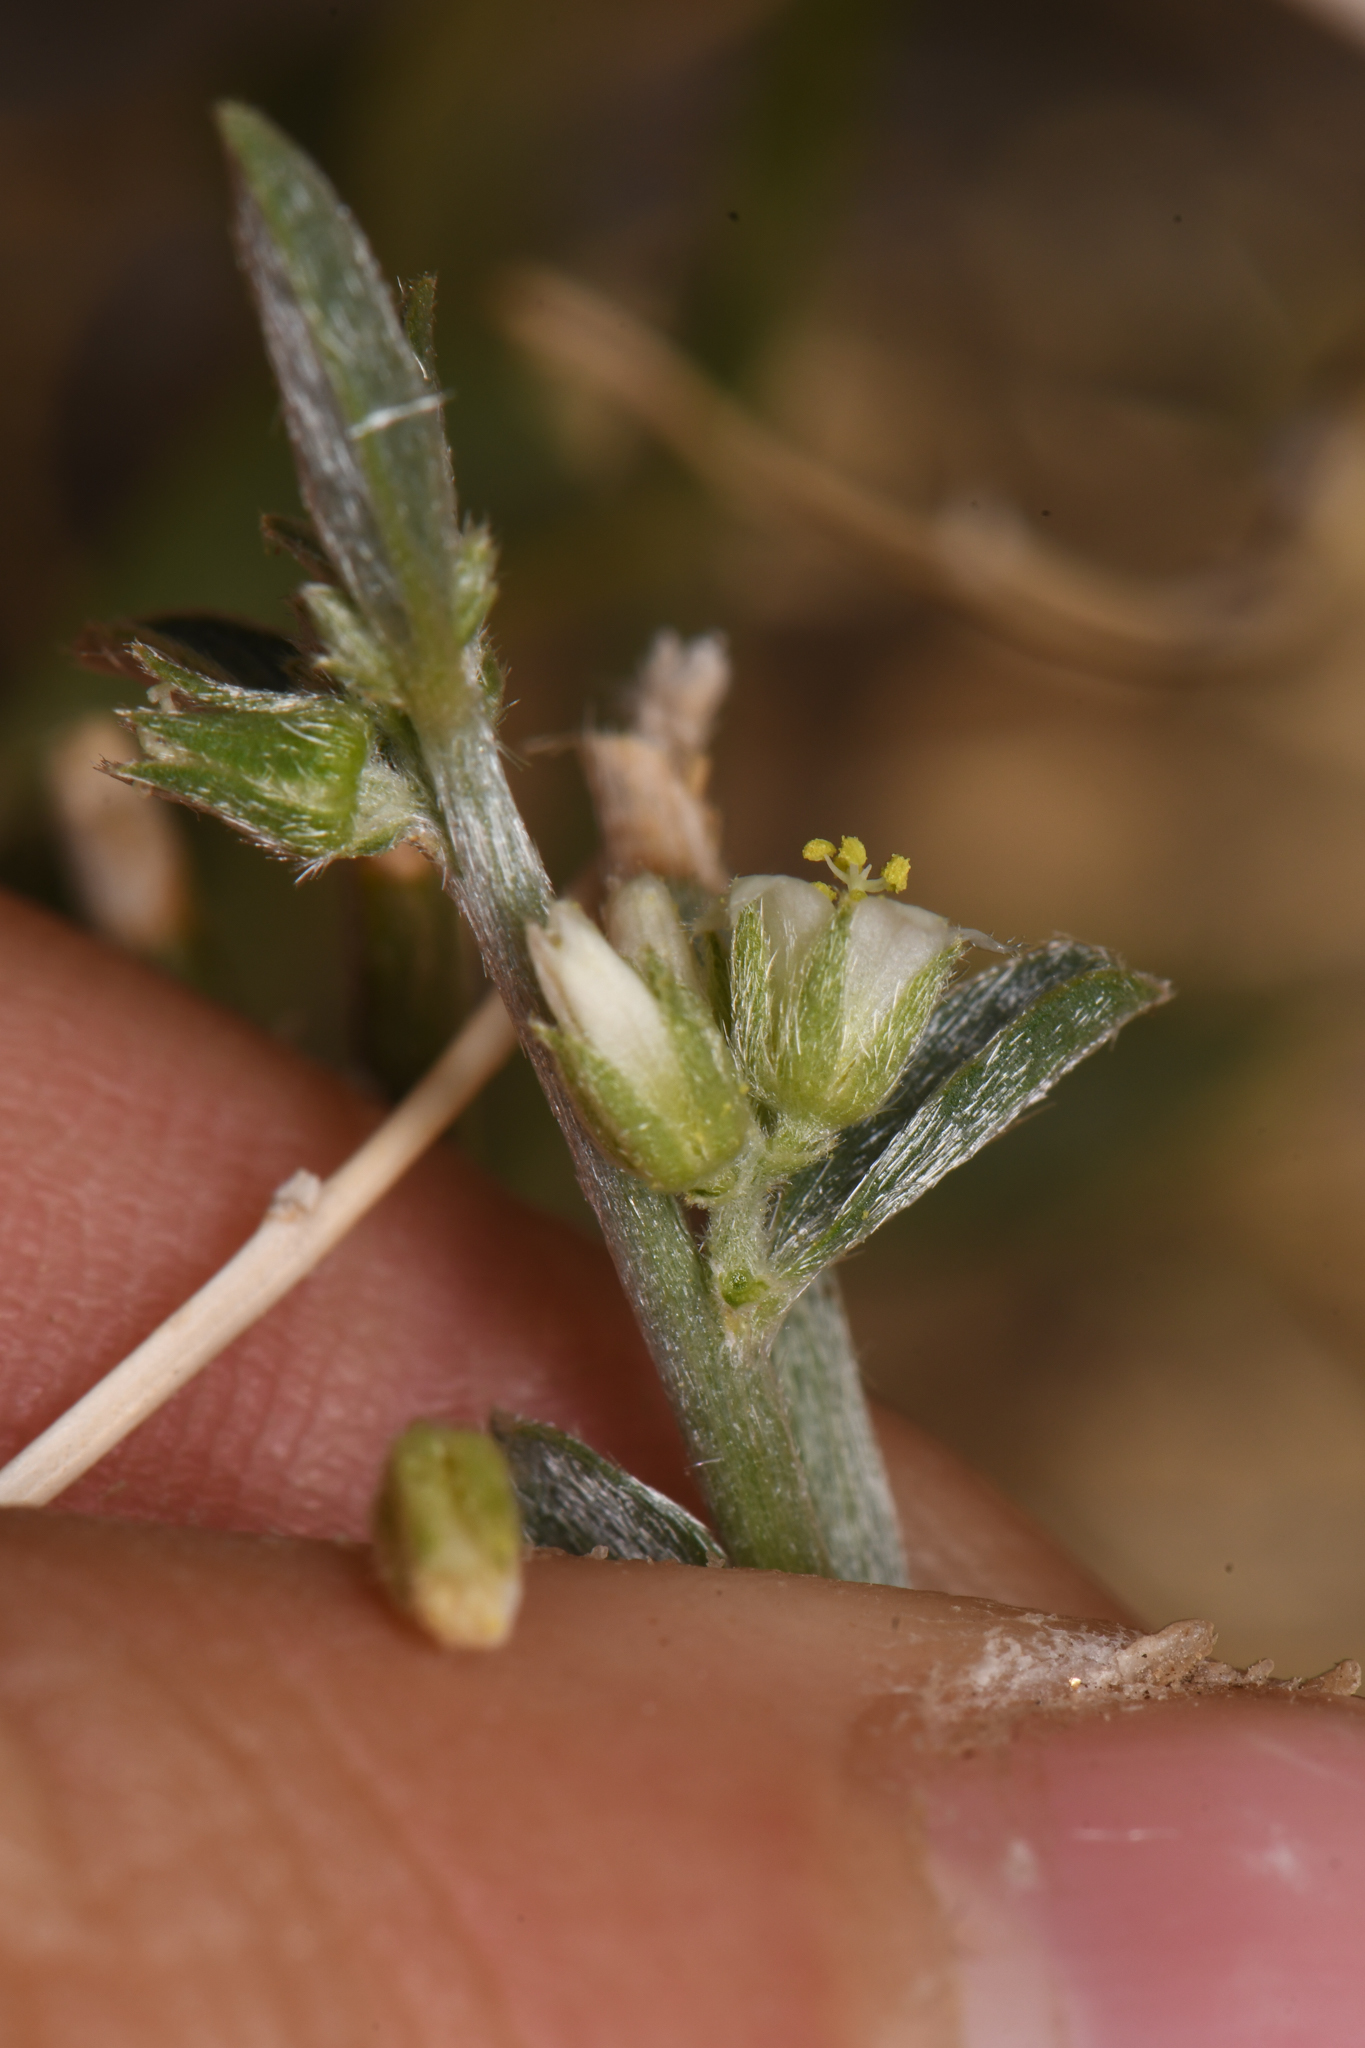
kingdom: Plantae
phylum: Tracheophyta
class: Magnoliopsida
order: Malpighiales
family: Euphorbiaceae
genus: Ditaxis
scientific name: Ditaxis lanceolata
